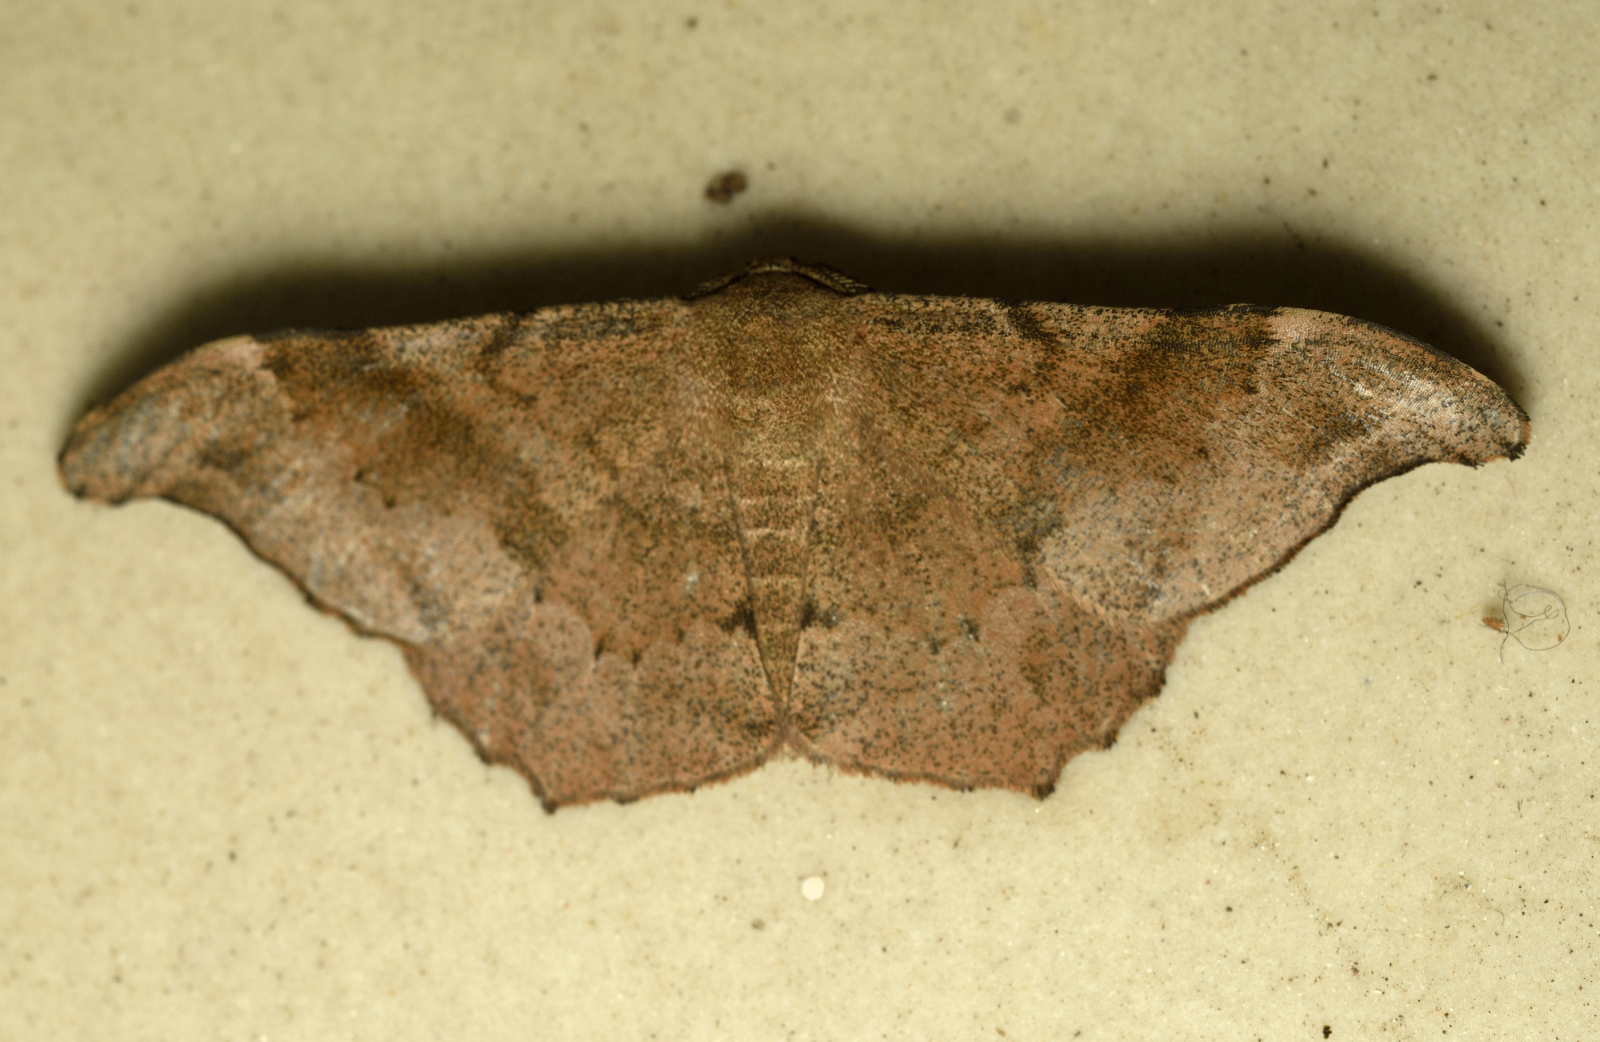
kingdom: Animalia
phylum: Arthropoda
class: Insecta
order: Lepidoptera
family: Geometridae
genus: Hyposidra
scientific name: Hyposidra talaca
